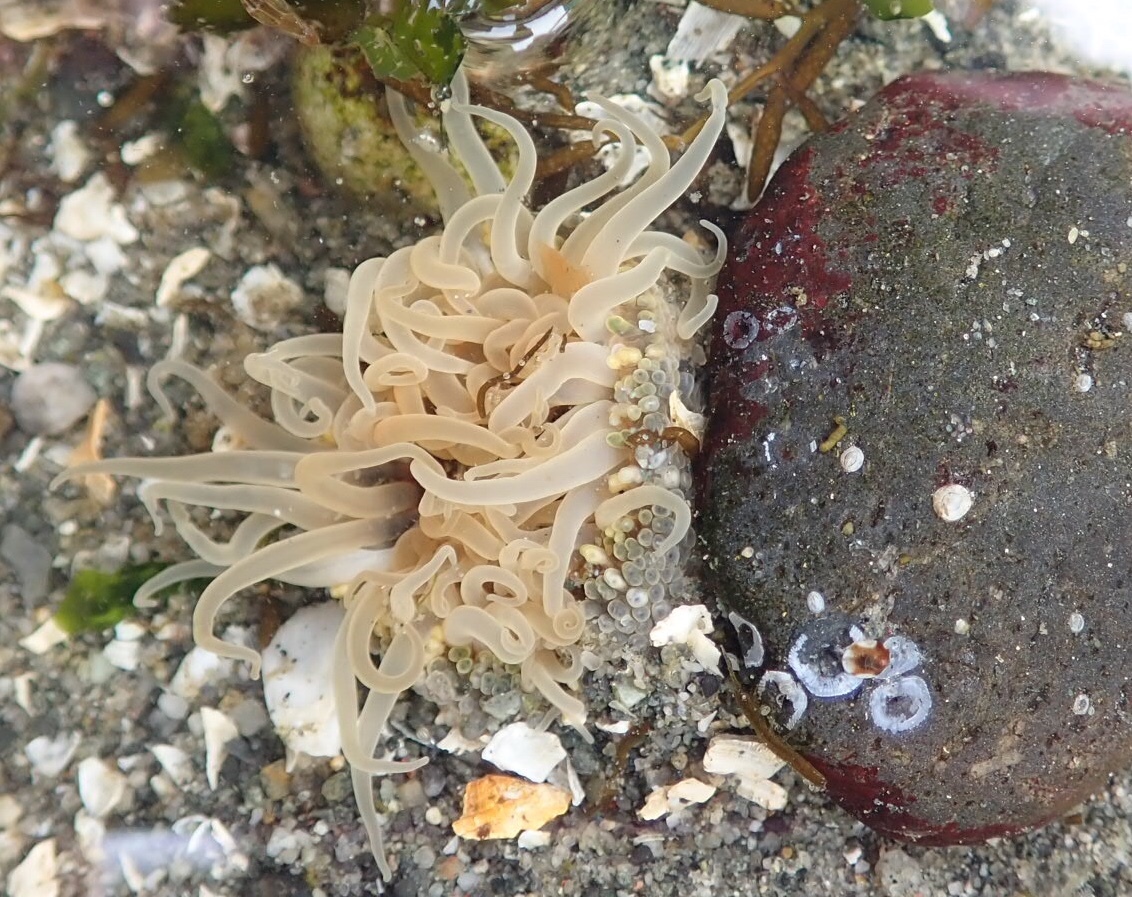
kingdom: Animalia
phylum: Cnidaria
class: Anthozoa
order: Actiniaria
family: Actiniidae
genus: Anthopleura
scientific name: Anthopleura artemisia
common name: Buried sea anemone
